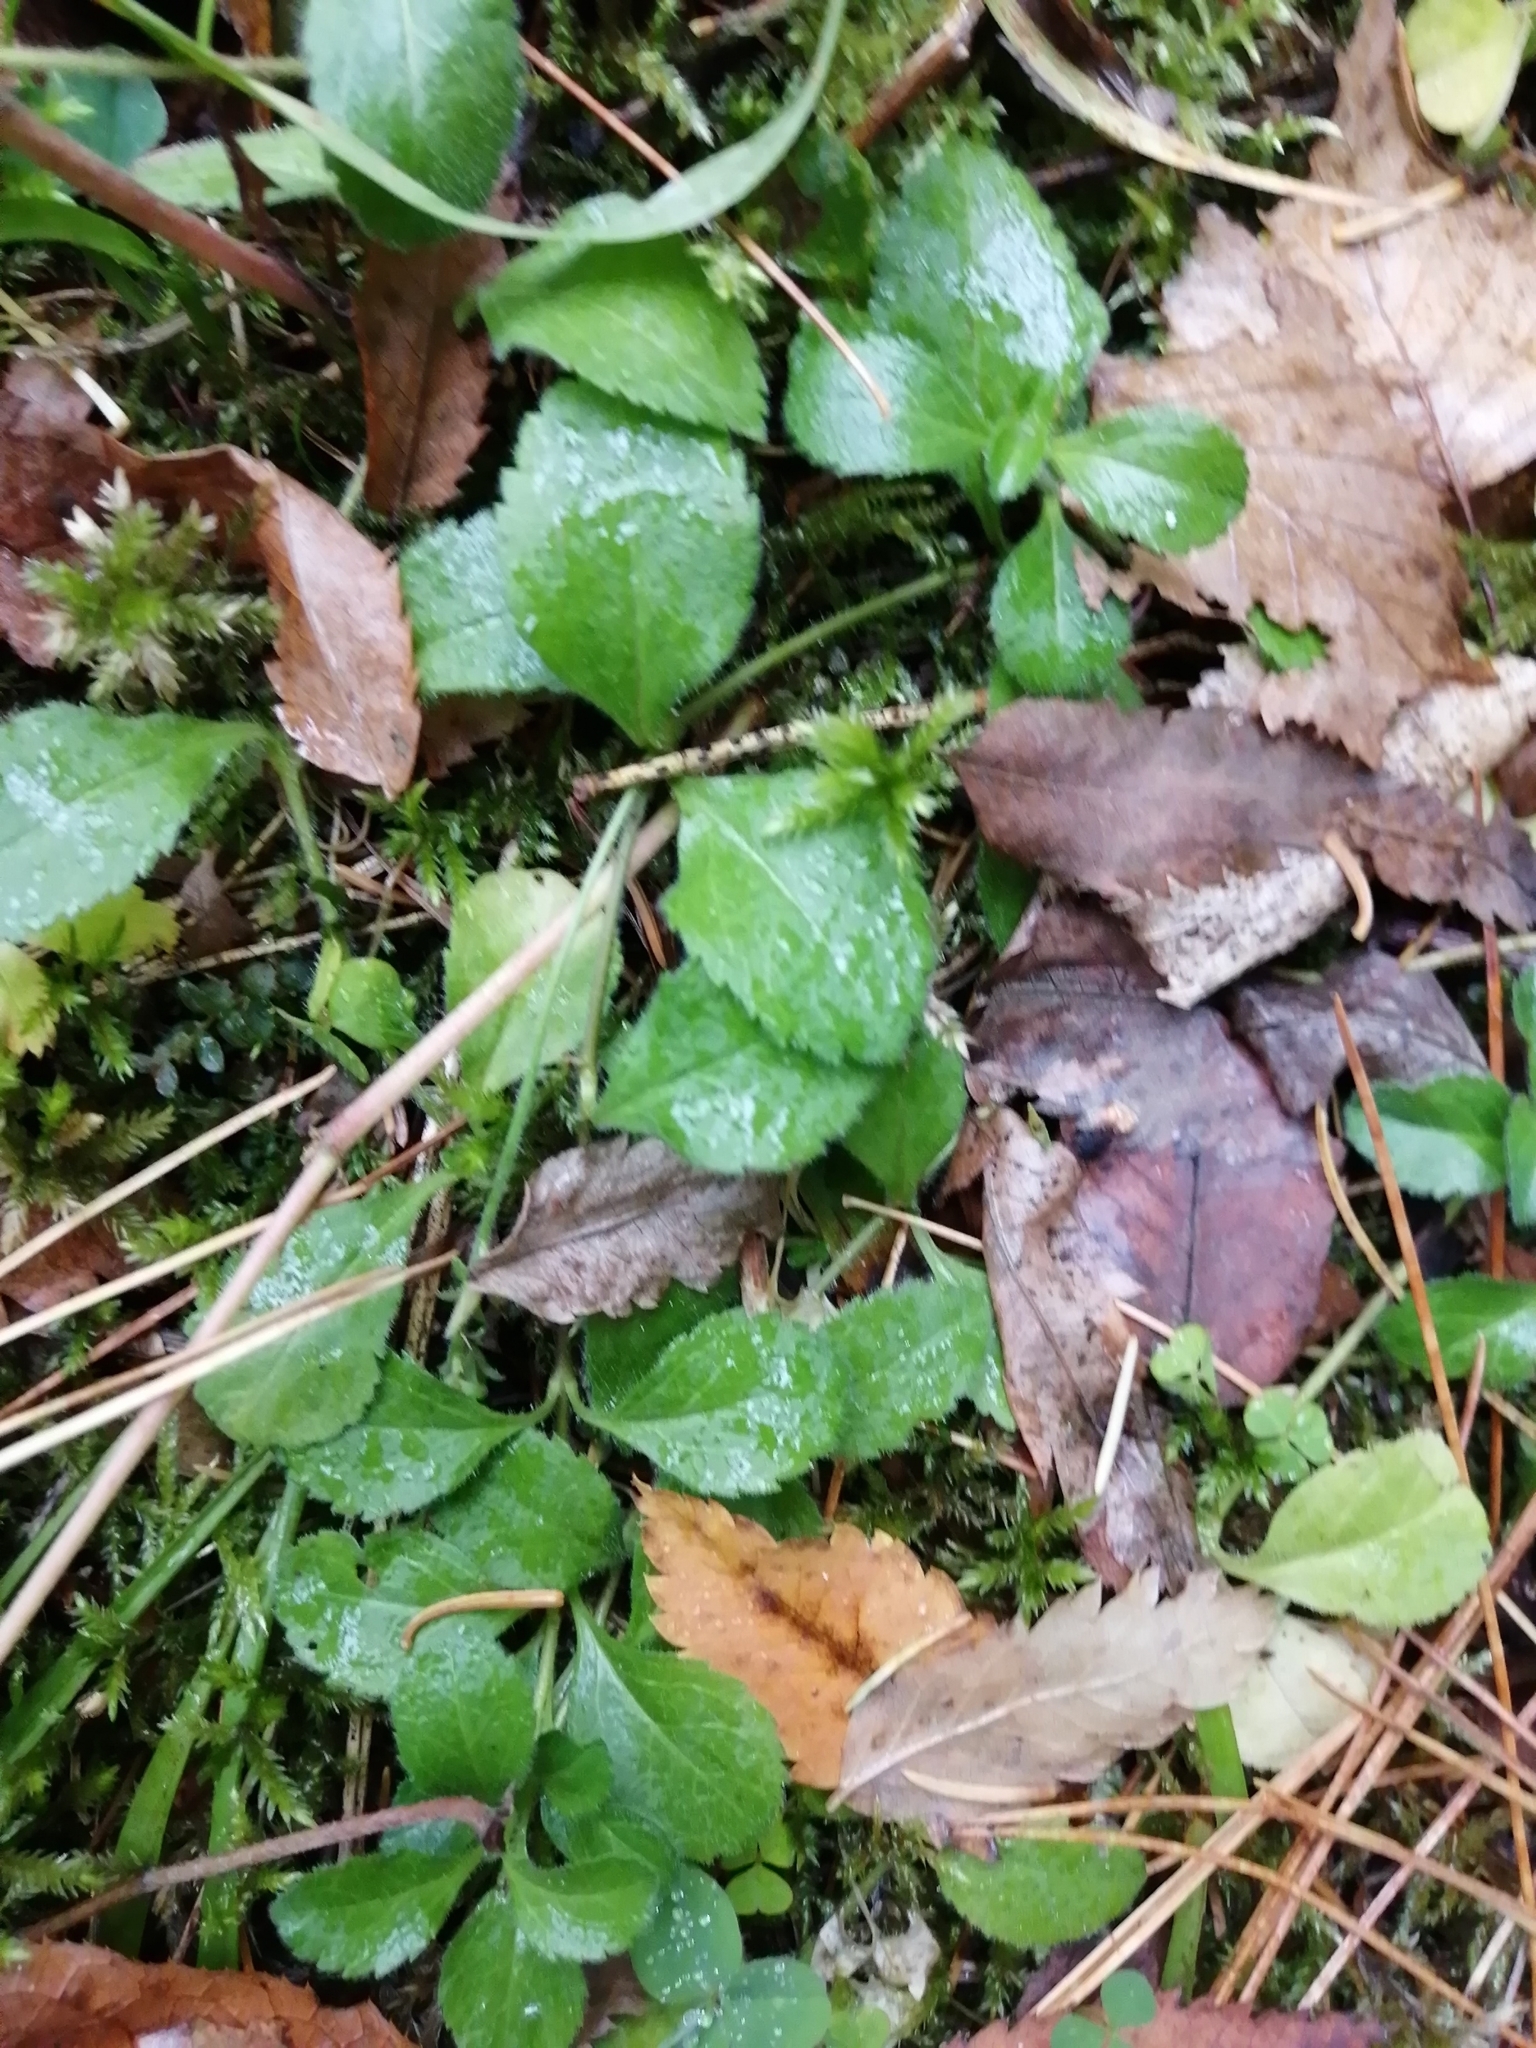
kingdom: Plantae
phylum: Tracheophyta
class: Magnoliopsida
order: Lamiales
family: Plantaginaceae
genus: Veronica
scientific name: Veronica officinalis
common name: Common speedwell
